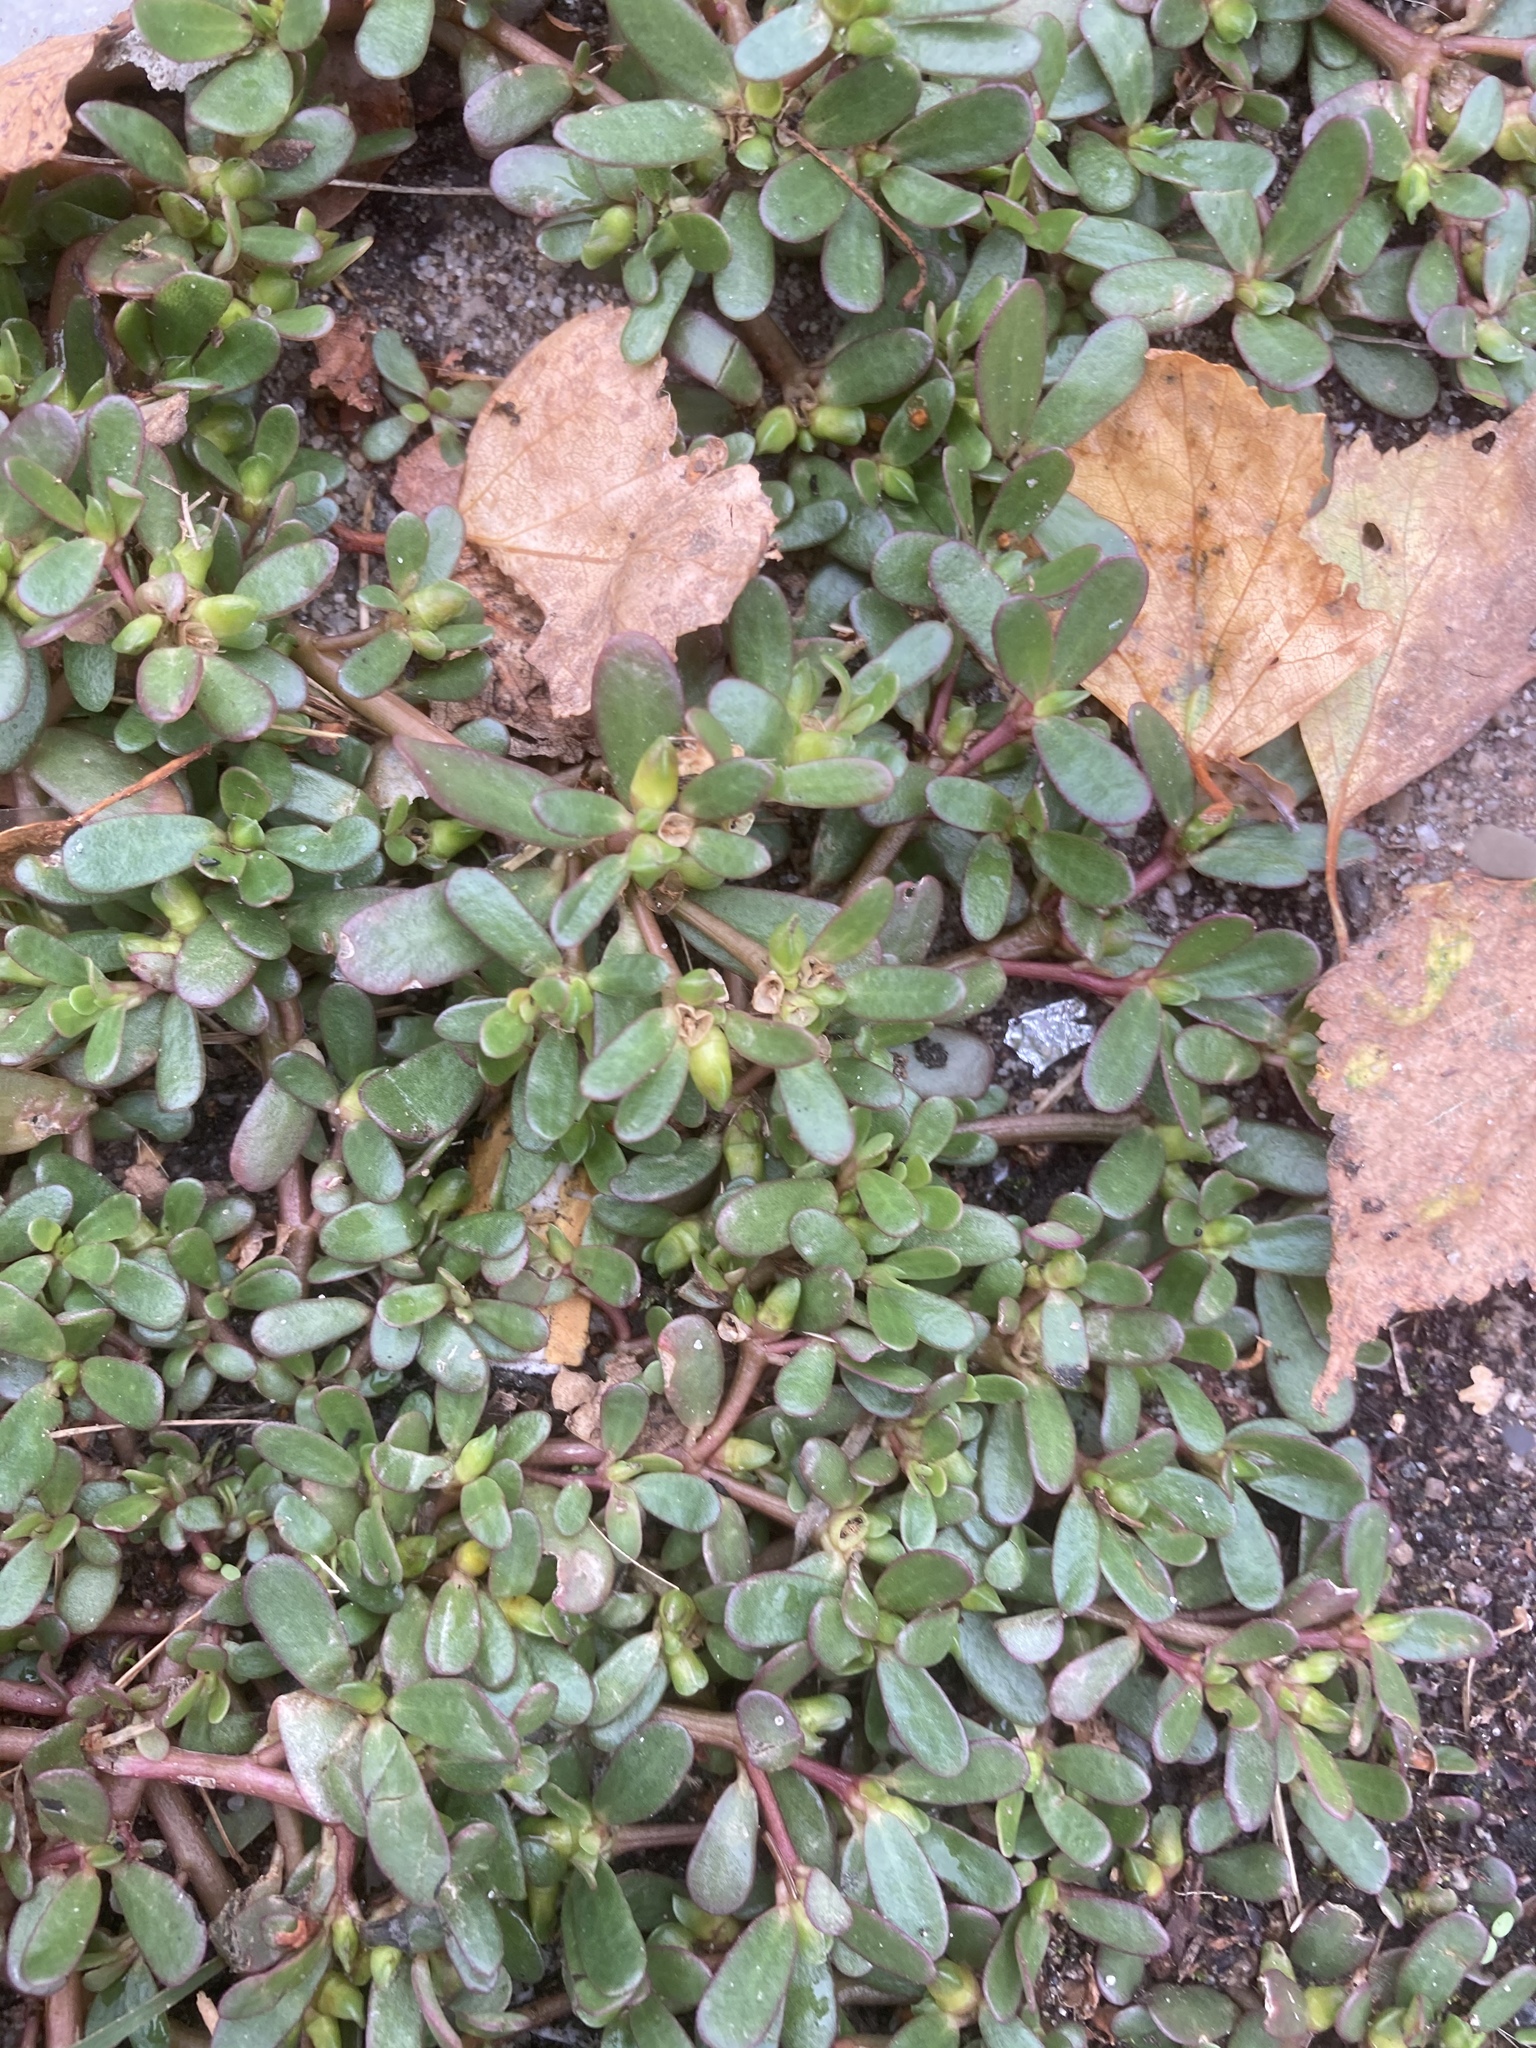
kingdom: Plantae
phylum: Tracheophyta
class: Magnoliopsida
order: Caryophyllales
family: Portulacaceae
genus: Portulaca
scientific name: Portulaca oleracea
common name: Common purslane
